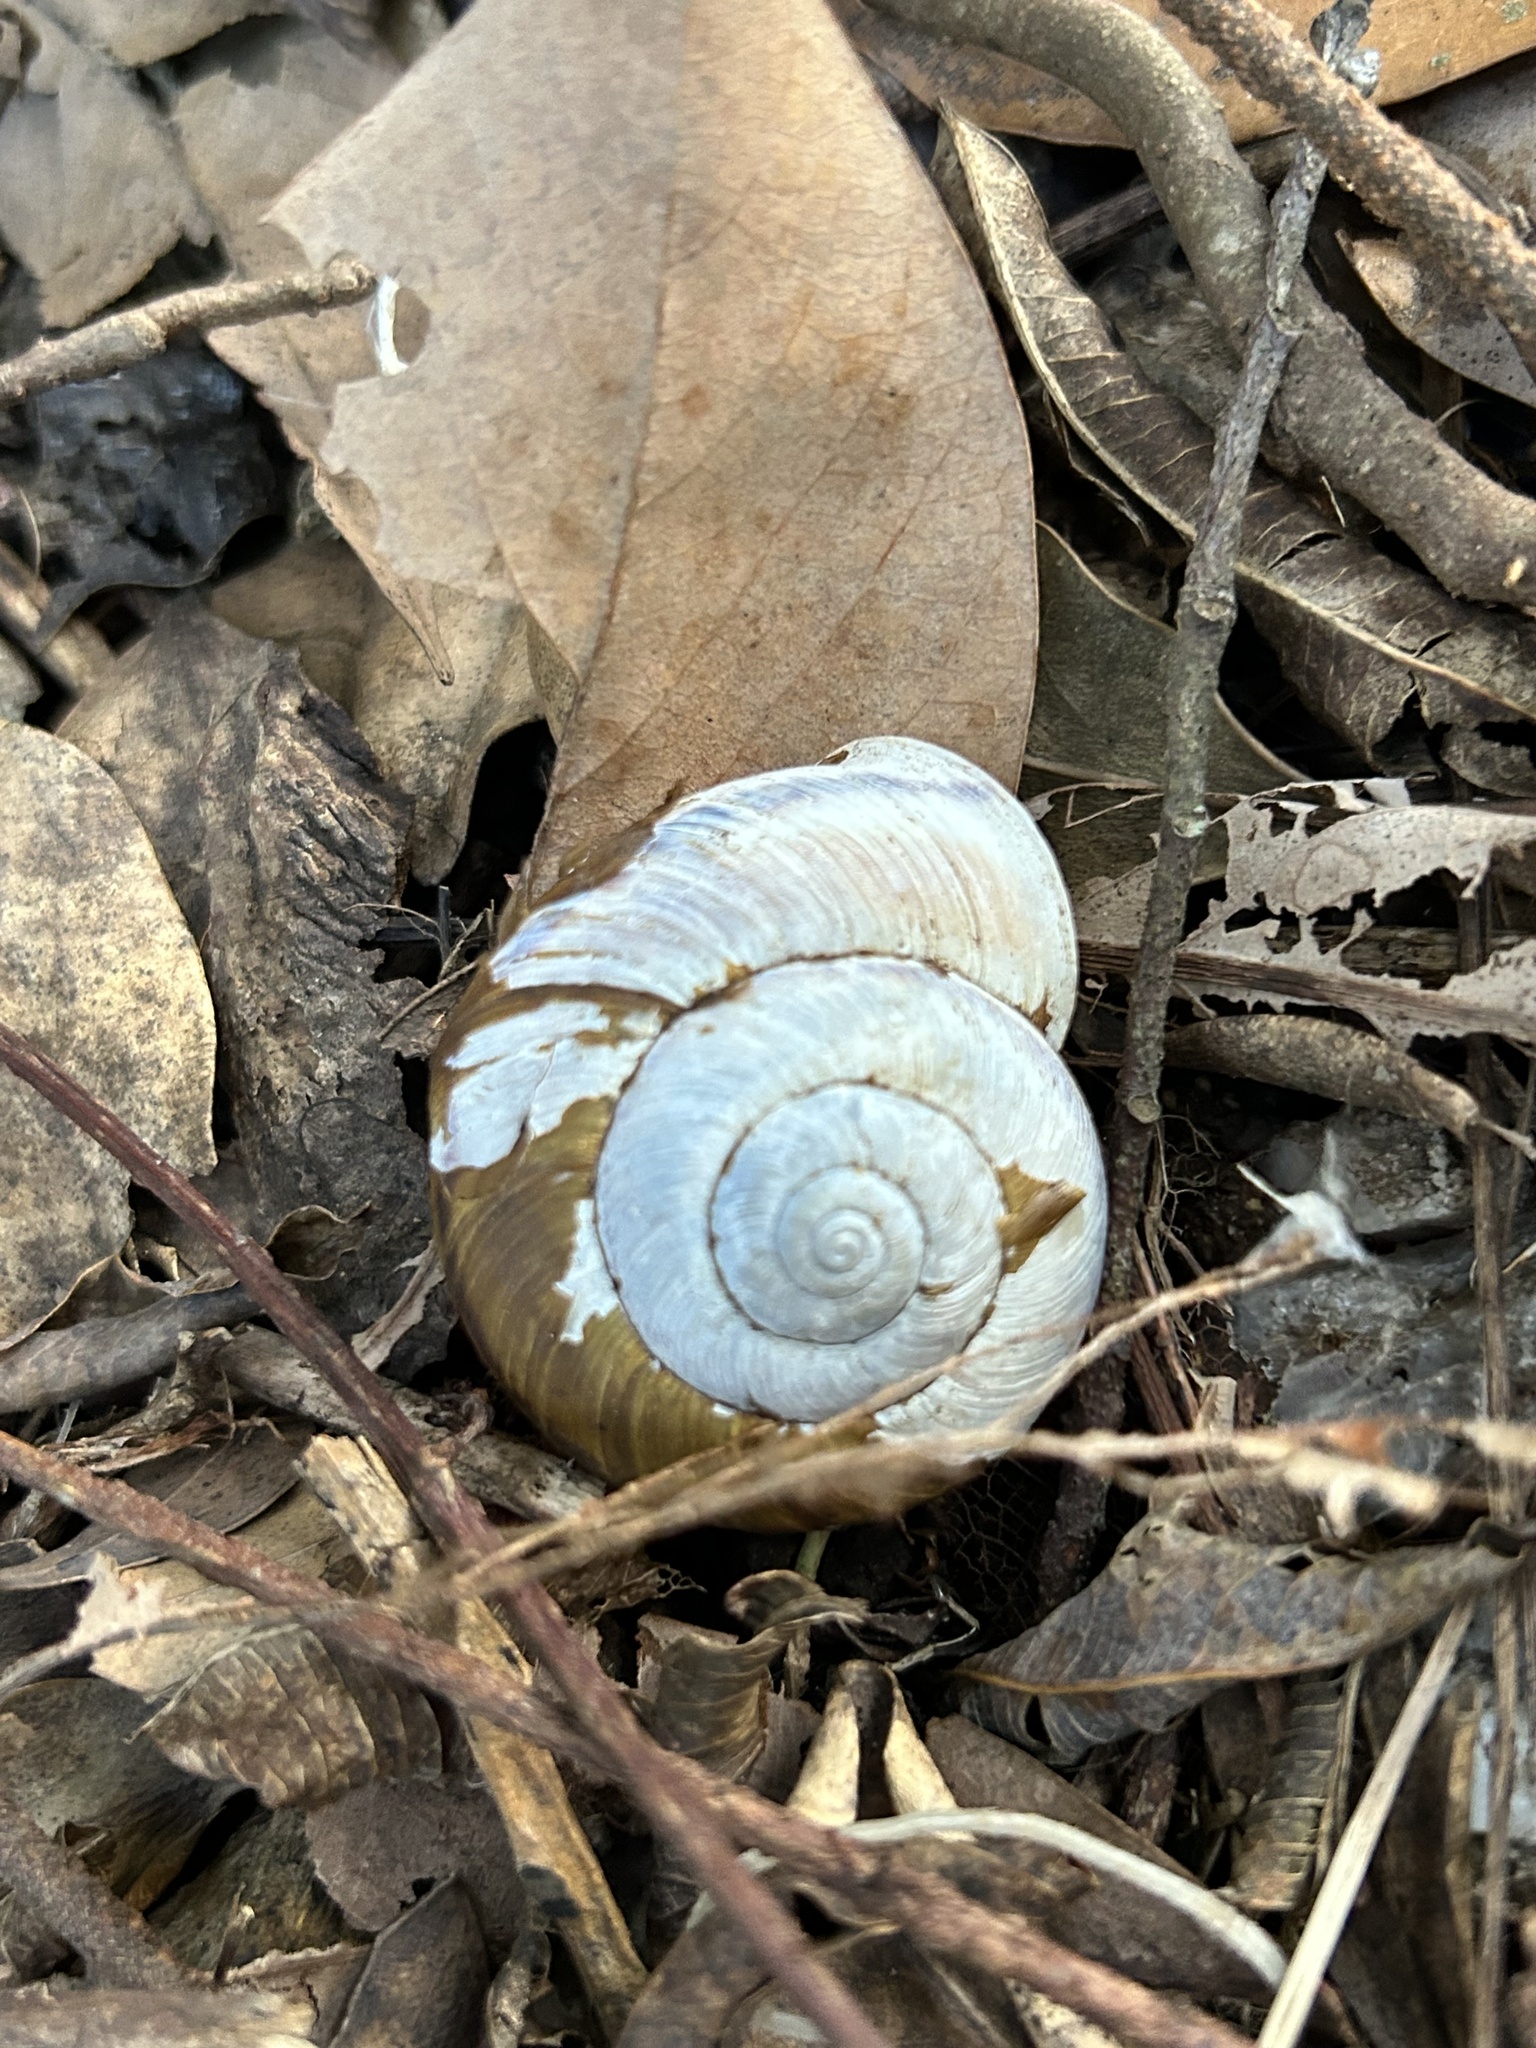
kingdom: Animalia
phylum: Mollusca
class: Gastropoda
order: Stylommatophora
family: Camaenidae
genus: Euhadra
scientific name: Euhadra eoa
